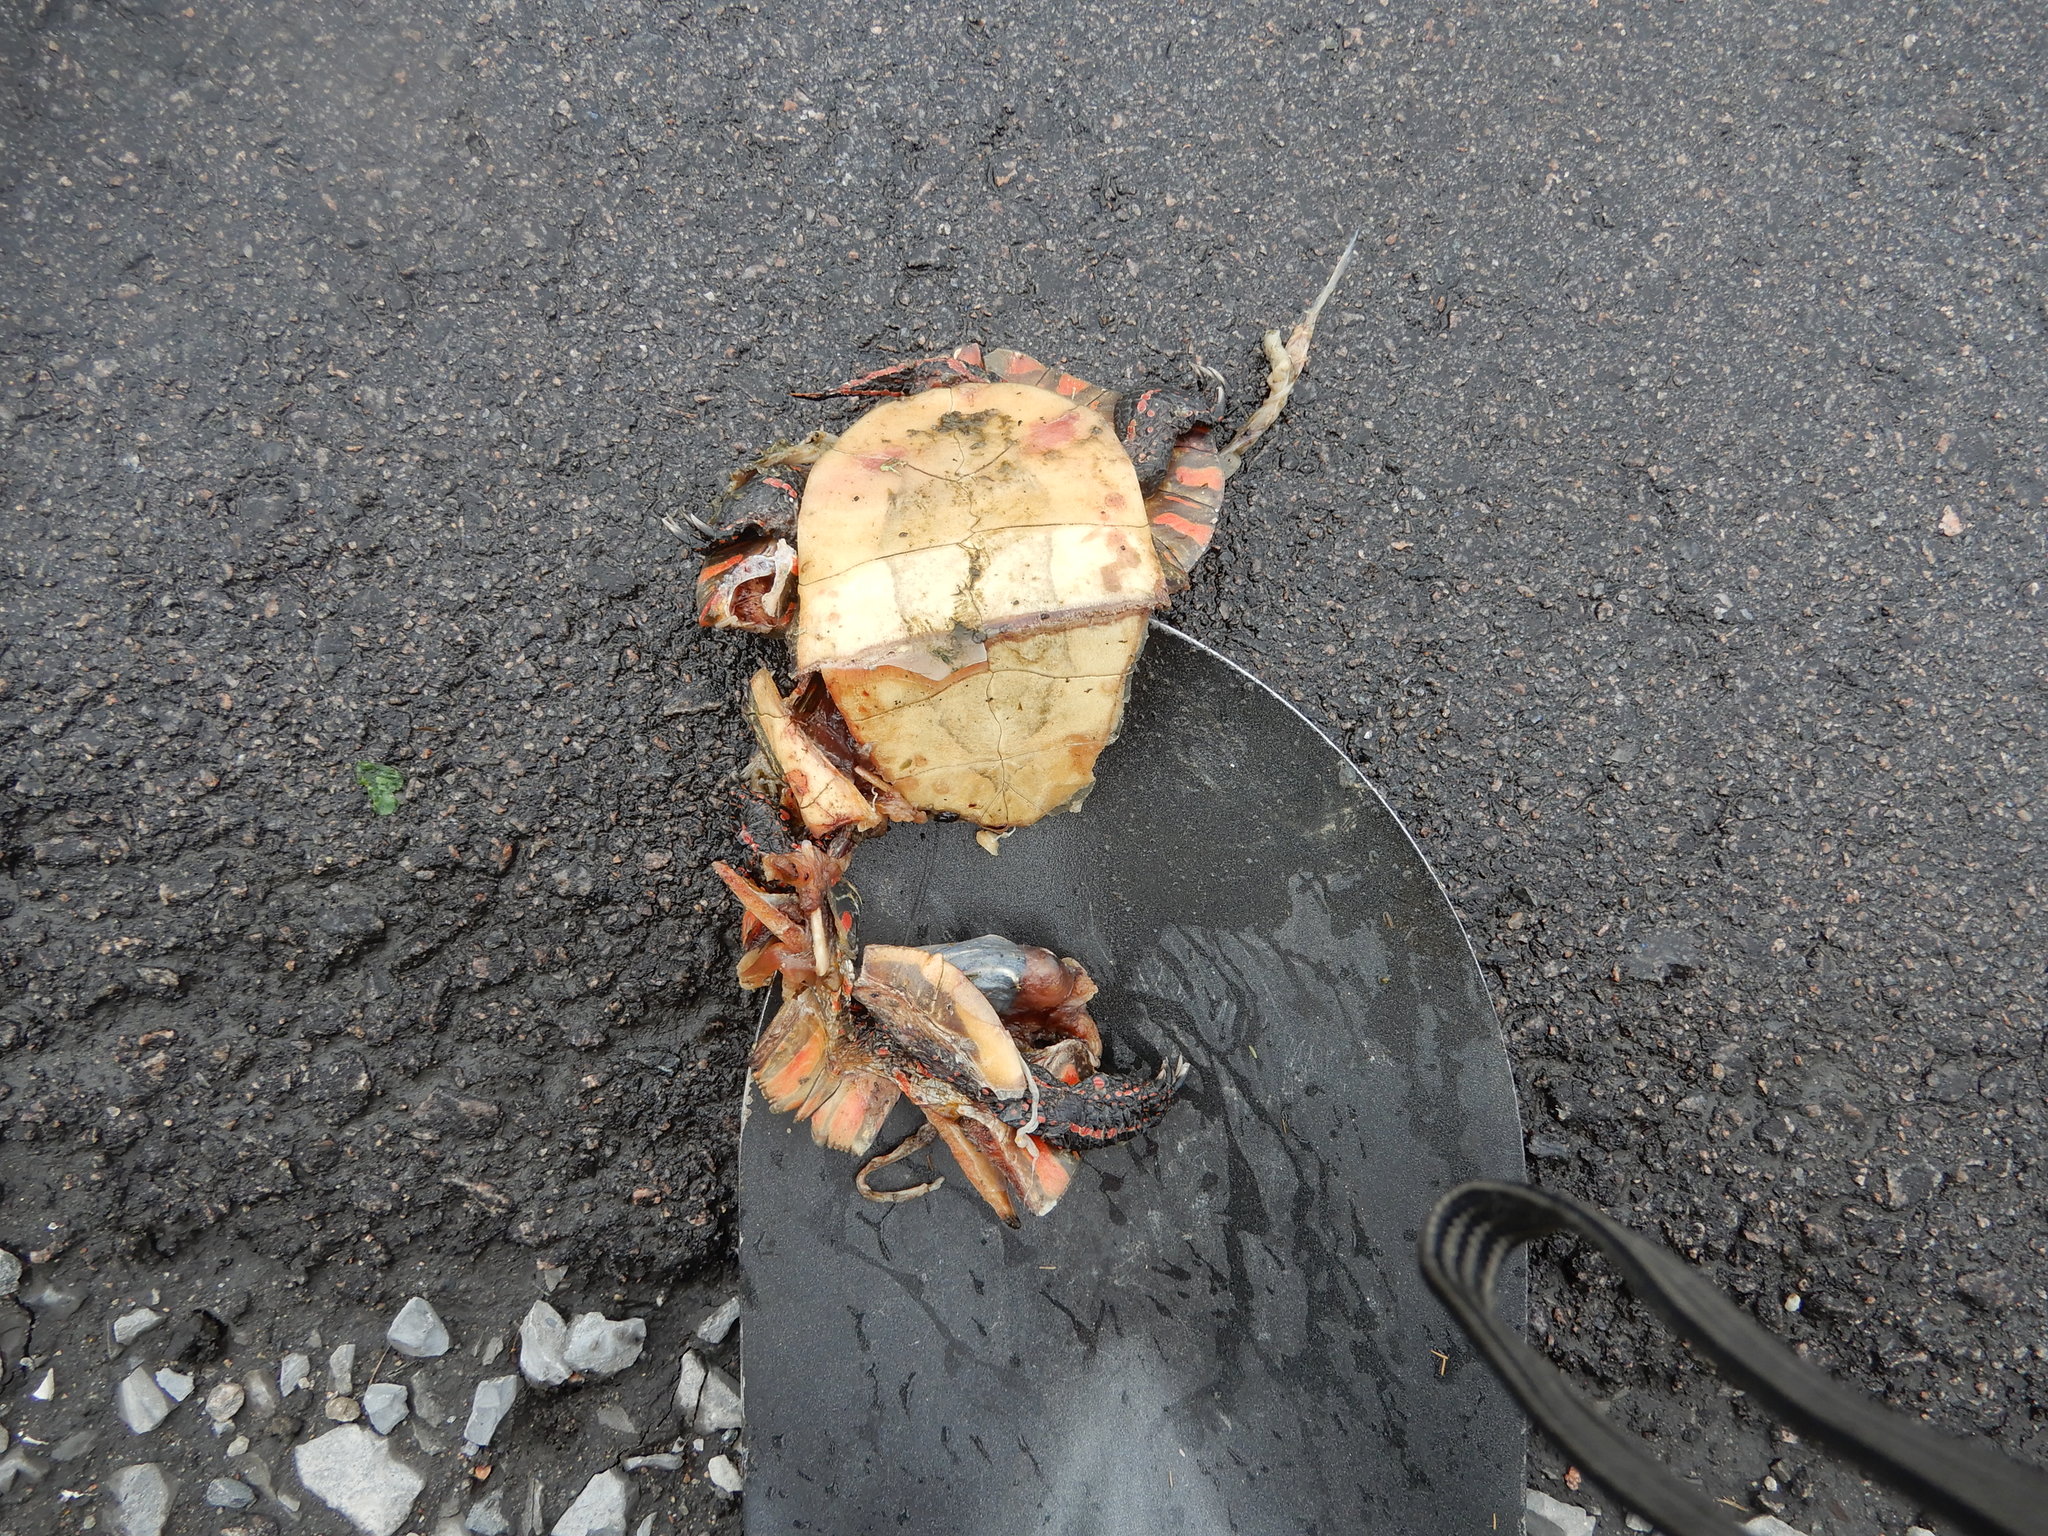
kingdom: Animalia
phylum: Chordata
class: Testudines
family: Emydidae
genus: Chrysemys
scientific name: Chrysemys picta
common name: Painted turtle
